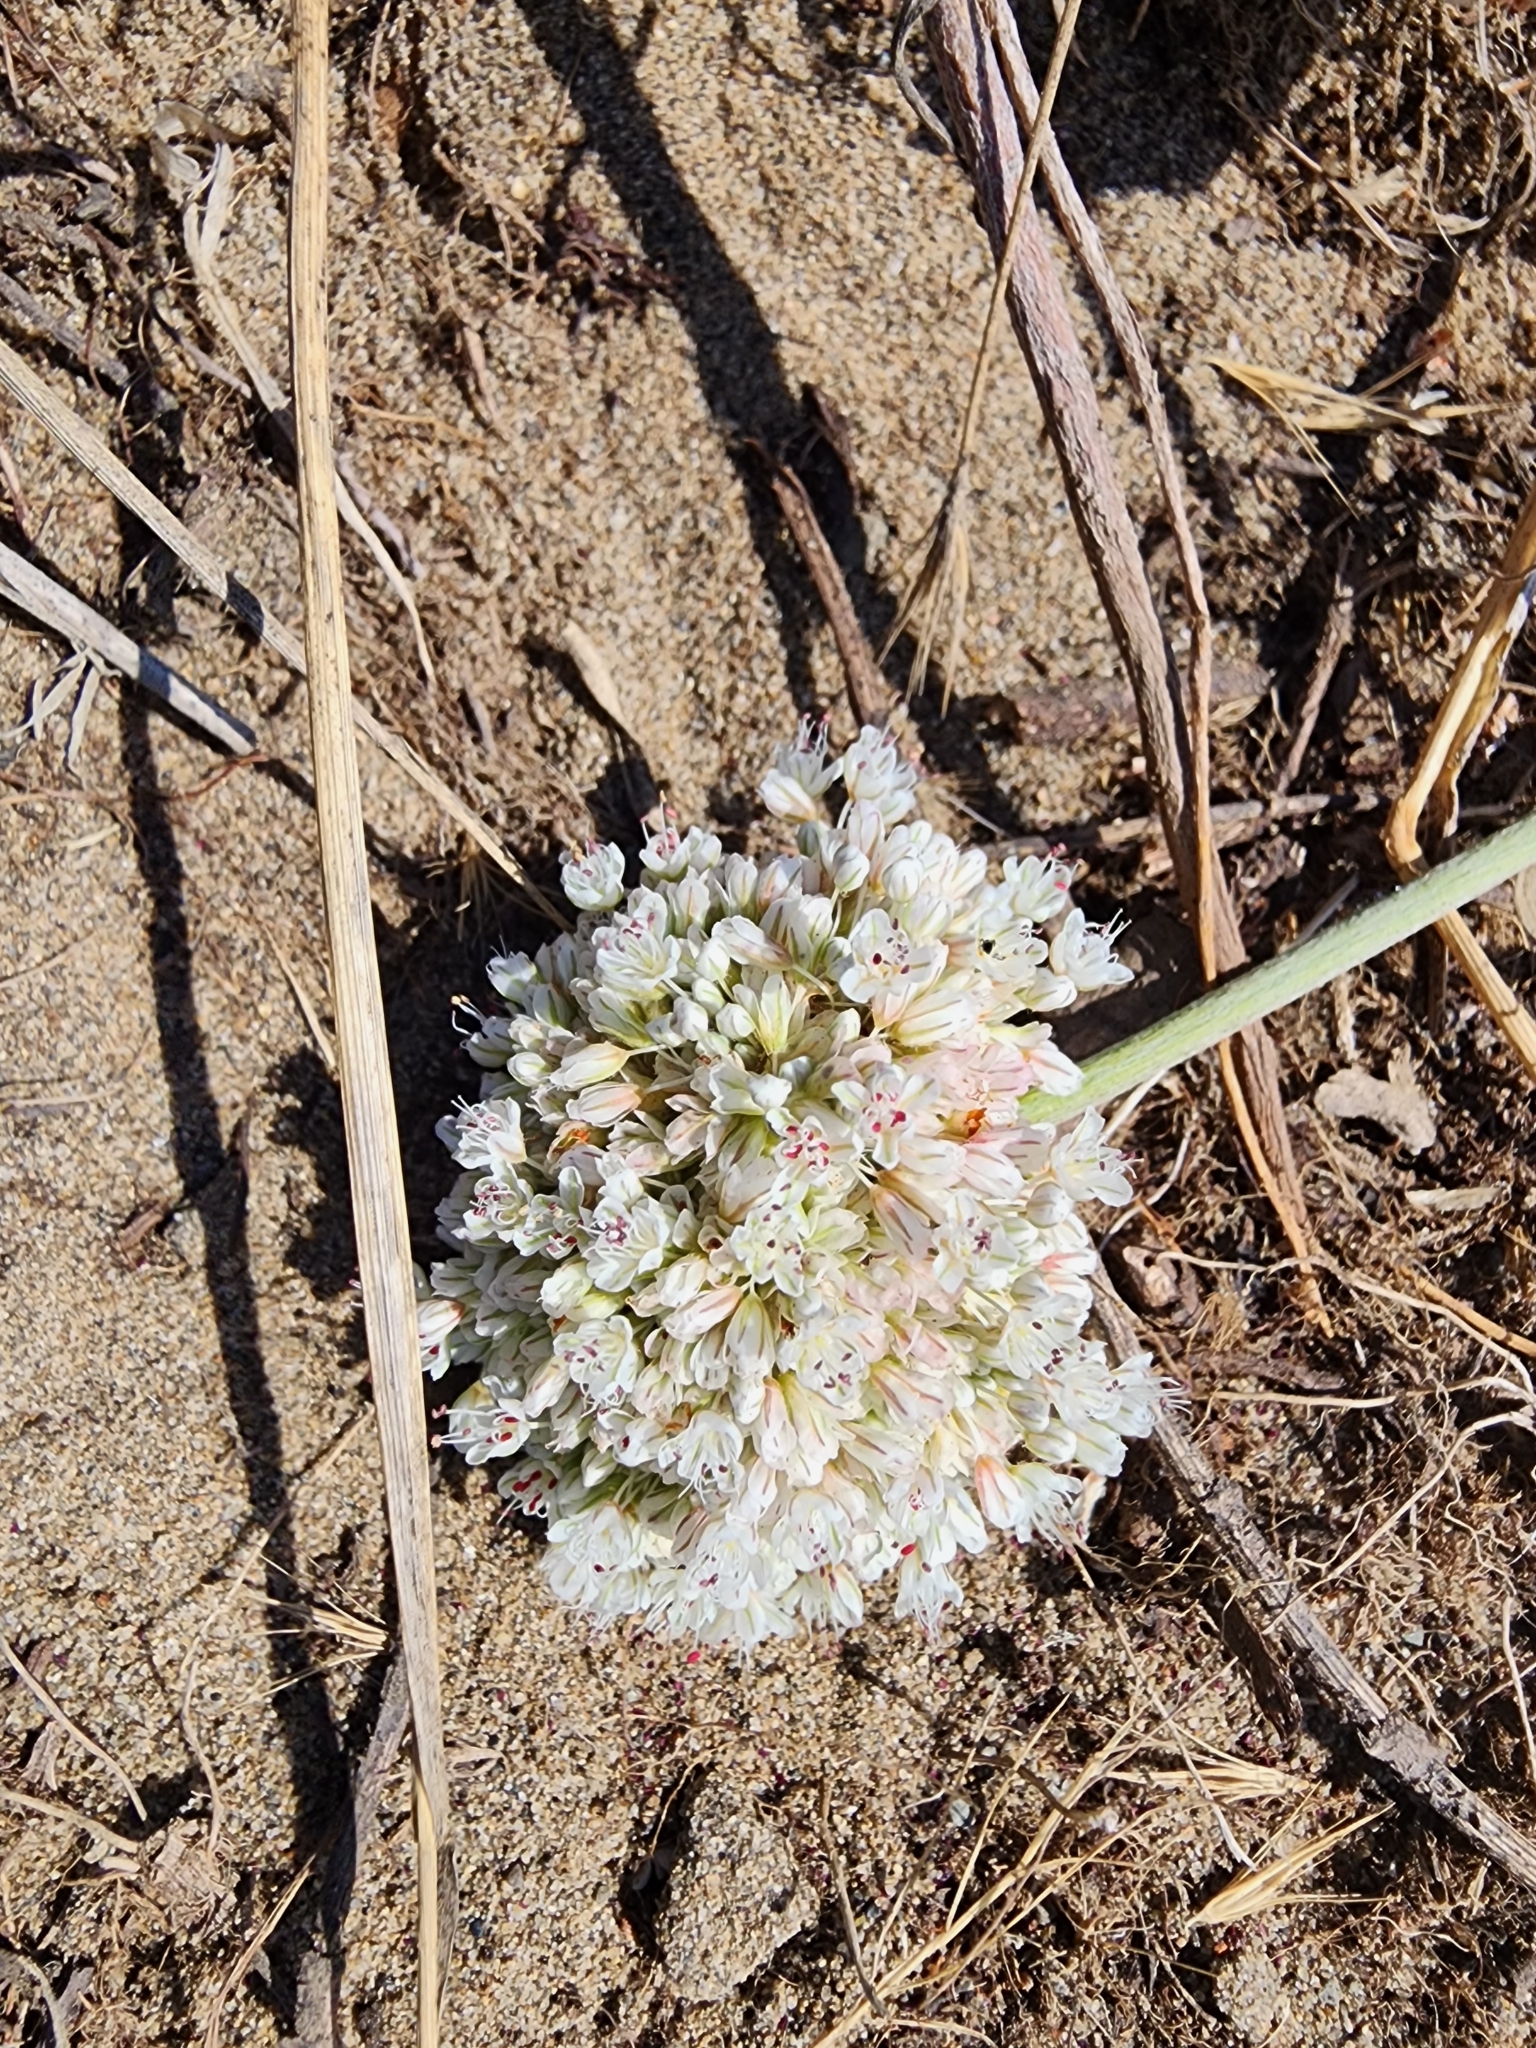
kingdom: Plantae
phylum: Tracheophyta
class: Magnoliopsida
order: Caryophyllales
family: Polygonaceae
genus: Eriogonum
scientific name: Eriogonum latifolium
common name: Seaside wild buckwheat
